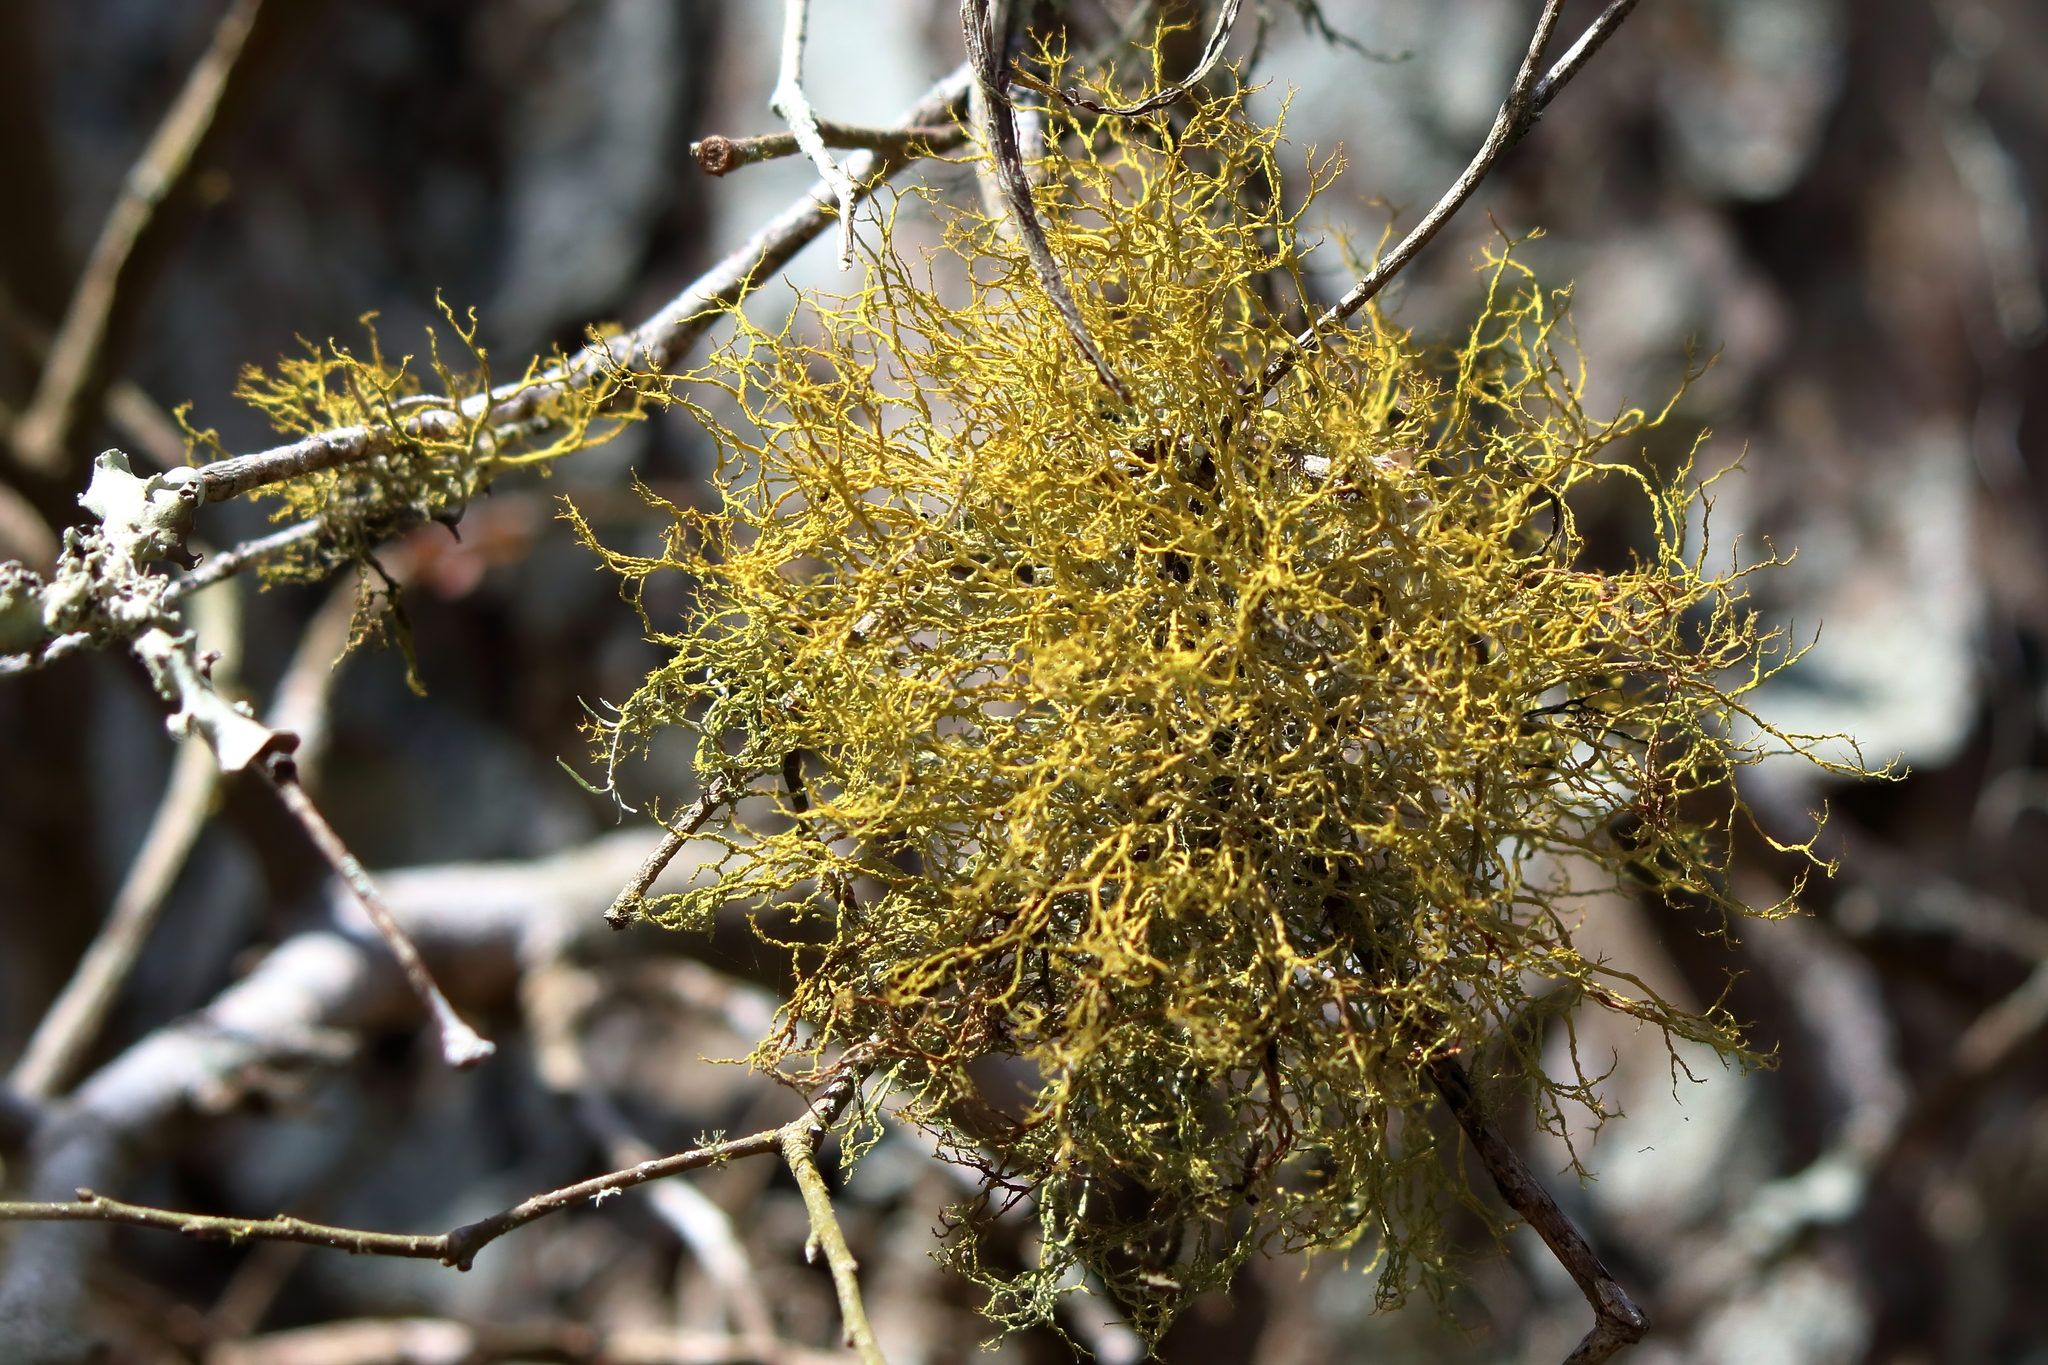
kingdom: Fungi
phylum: Ascomycota
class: Lecanoromycetes
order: Teloschistales
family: Teloschistaceae
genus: Teloschistes
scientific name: Teloschistes exilis
